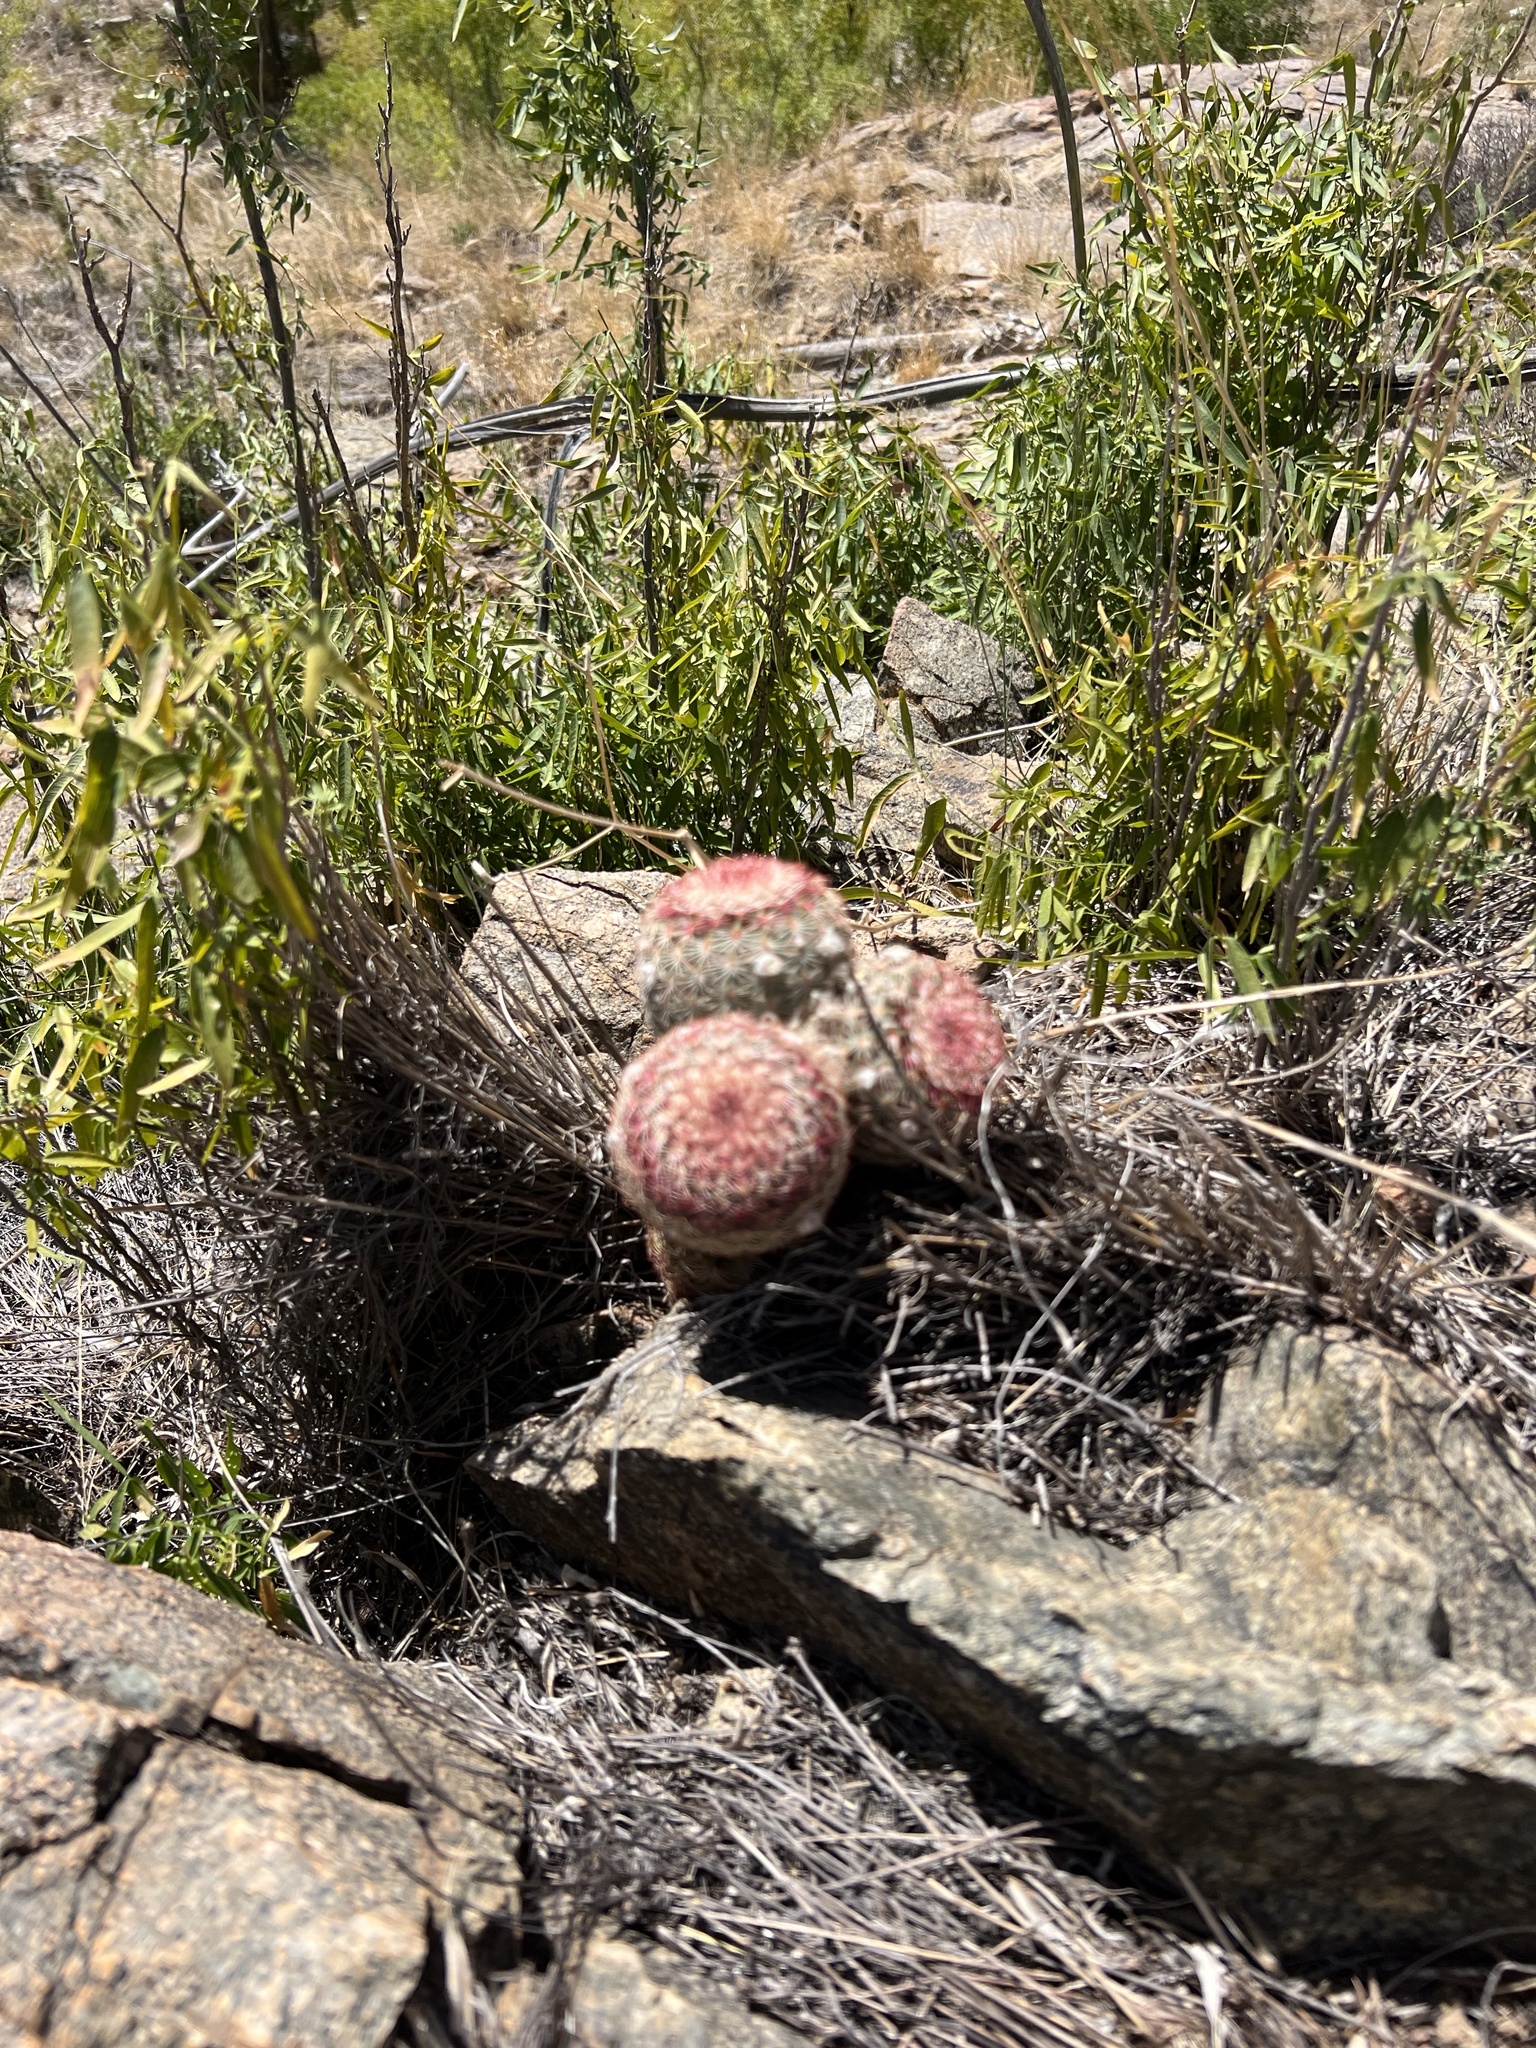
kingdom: Plantae
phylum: Tracheophyta
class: Magnoliopsida
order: Caryophyllales
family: Cactaceae
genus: Echinocereus
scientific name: Echinocereus rigidissimus
